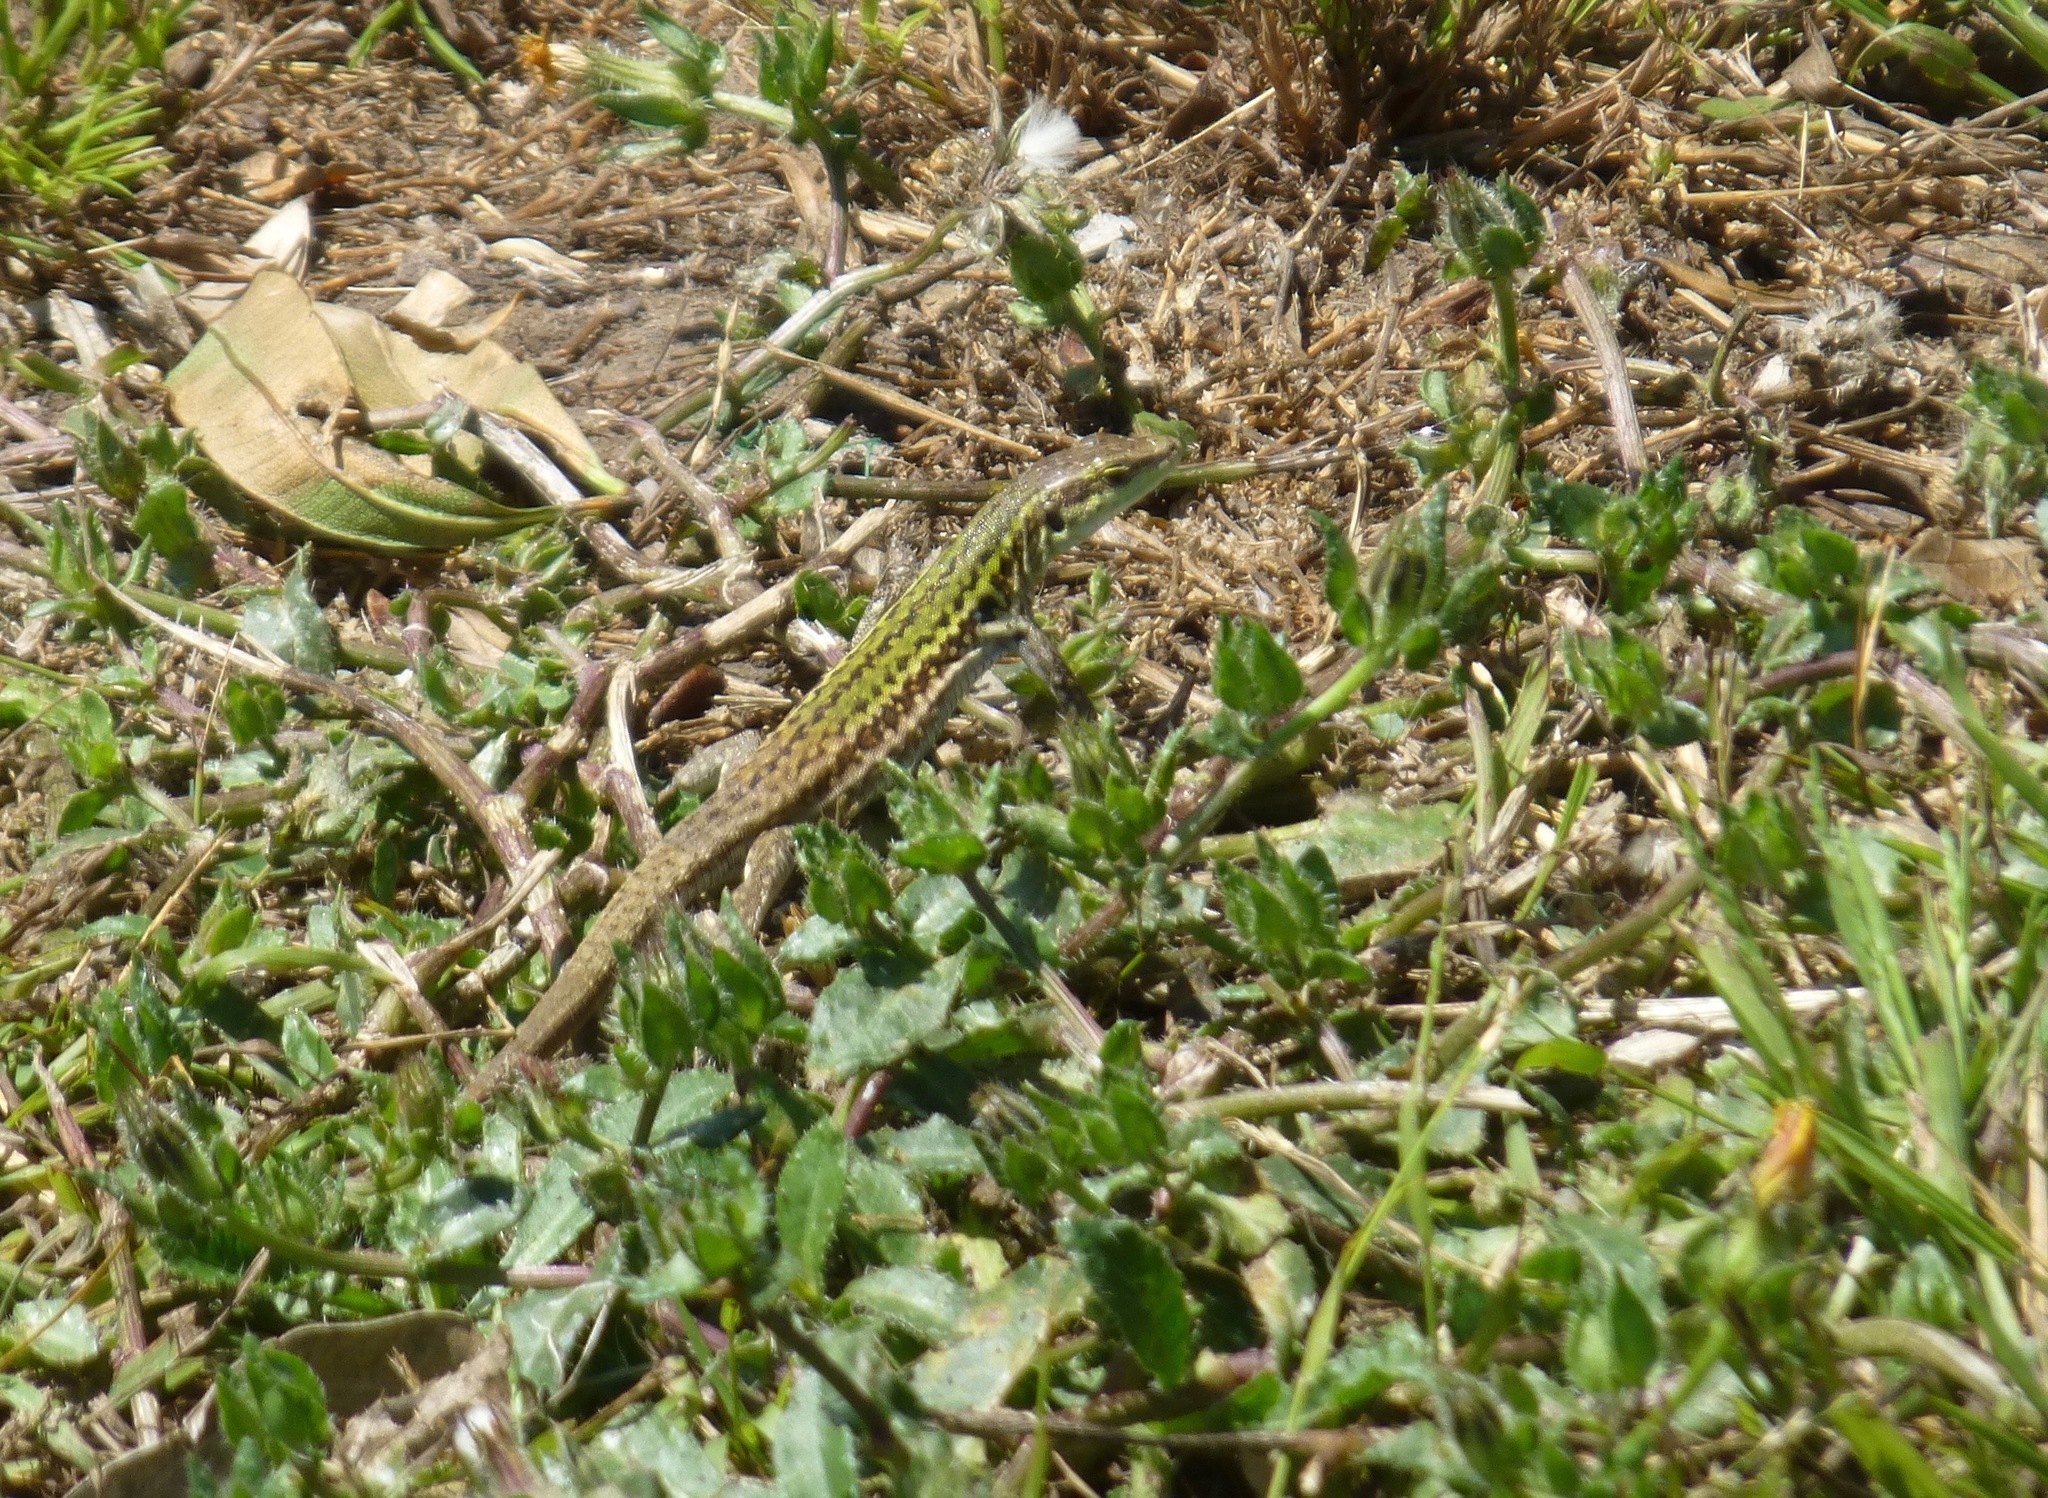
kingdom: Animalia
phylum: Chordata
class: Squamata
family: Lacertidae
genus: Podarcis
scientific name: Podarcis siculus
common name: Italian wall lizard
